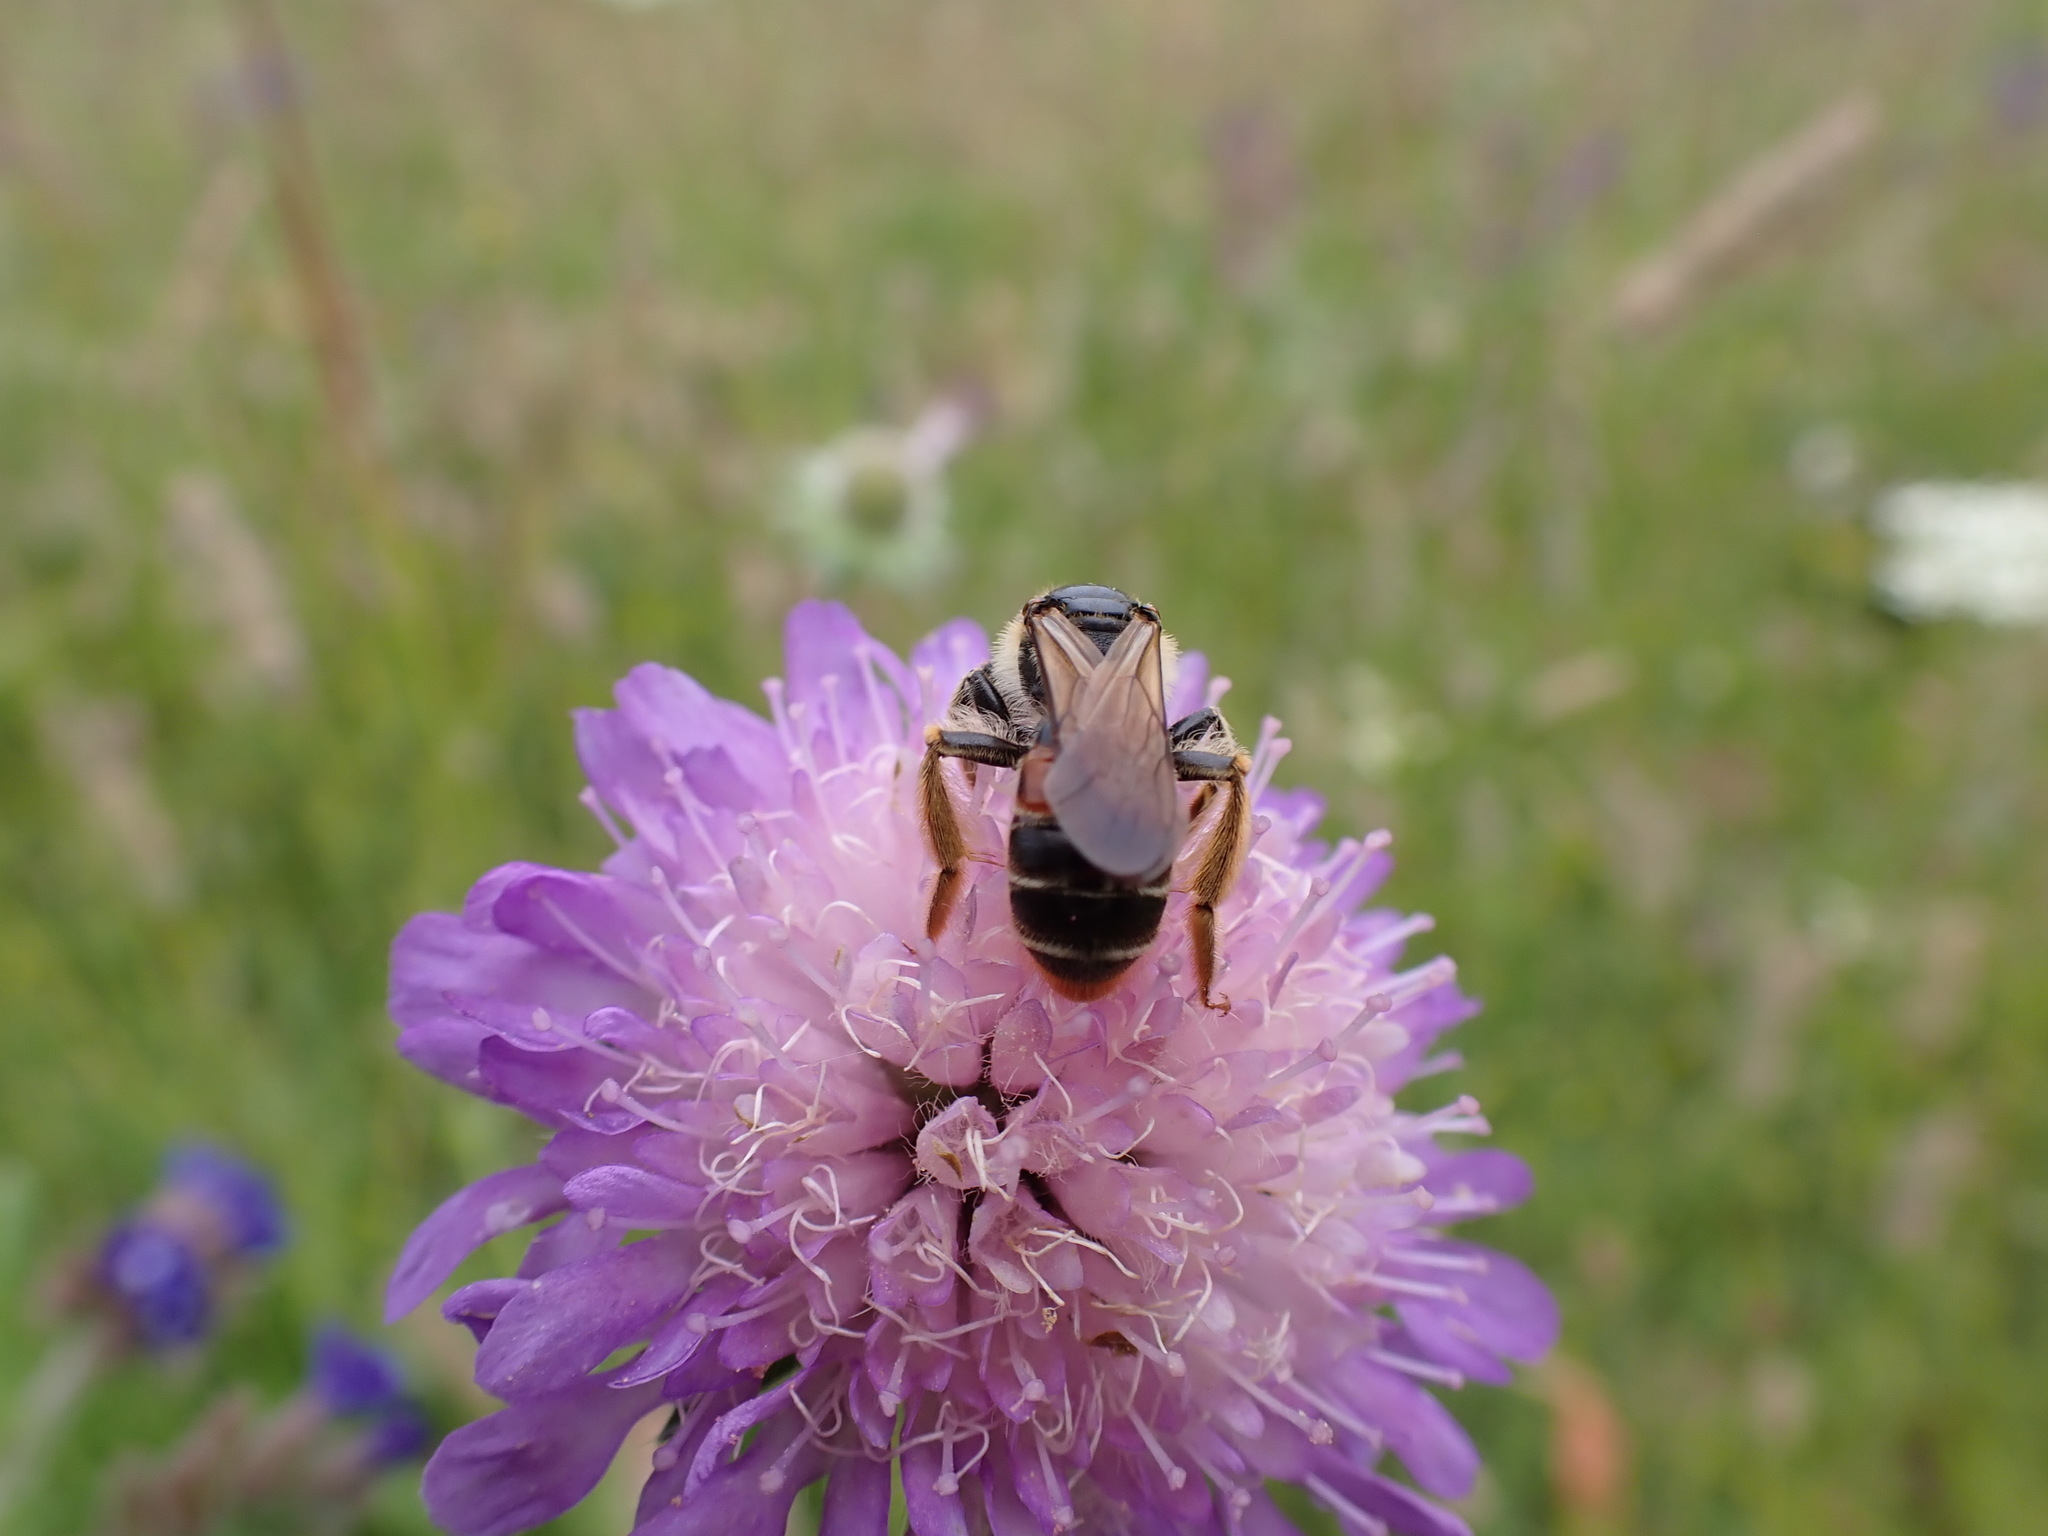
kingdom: Animalia
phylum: Arthropoda
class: Insecta
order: Hymenoptera
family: Andrenidae
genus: Andrena
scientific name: Andrena hattorfiana
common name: Large scabious mining bee
